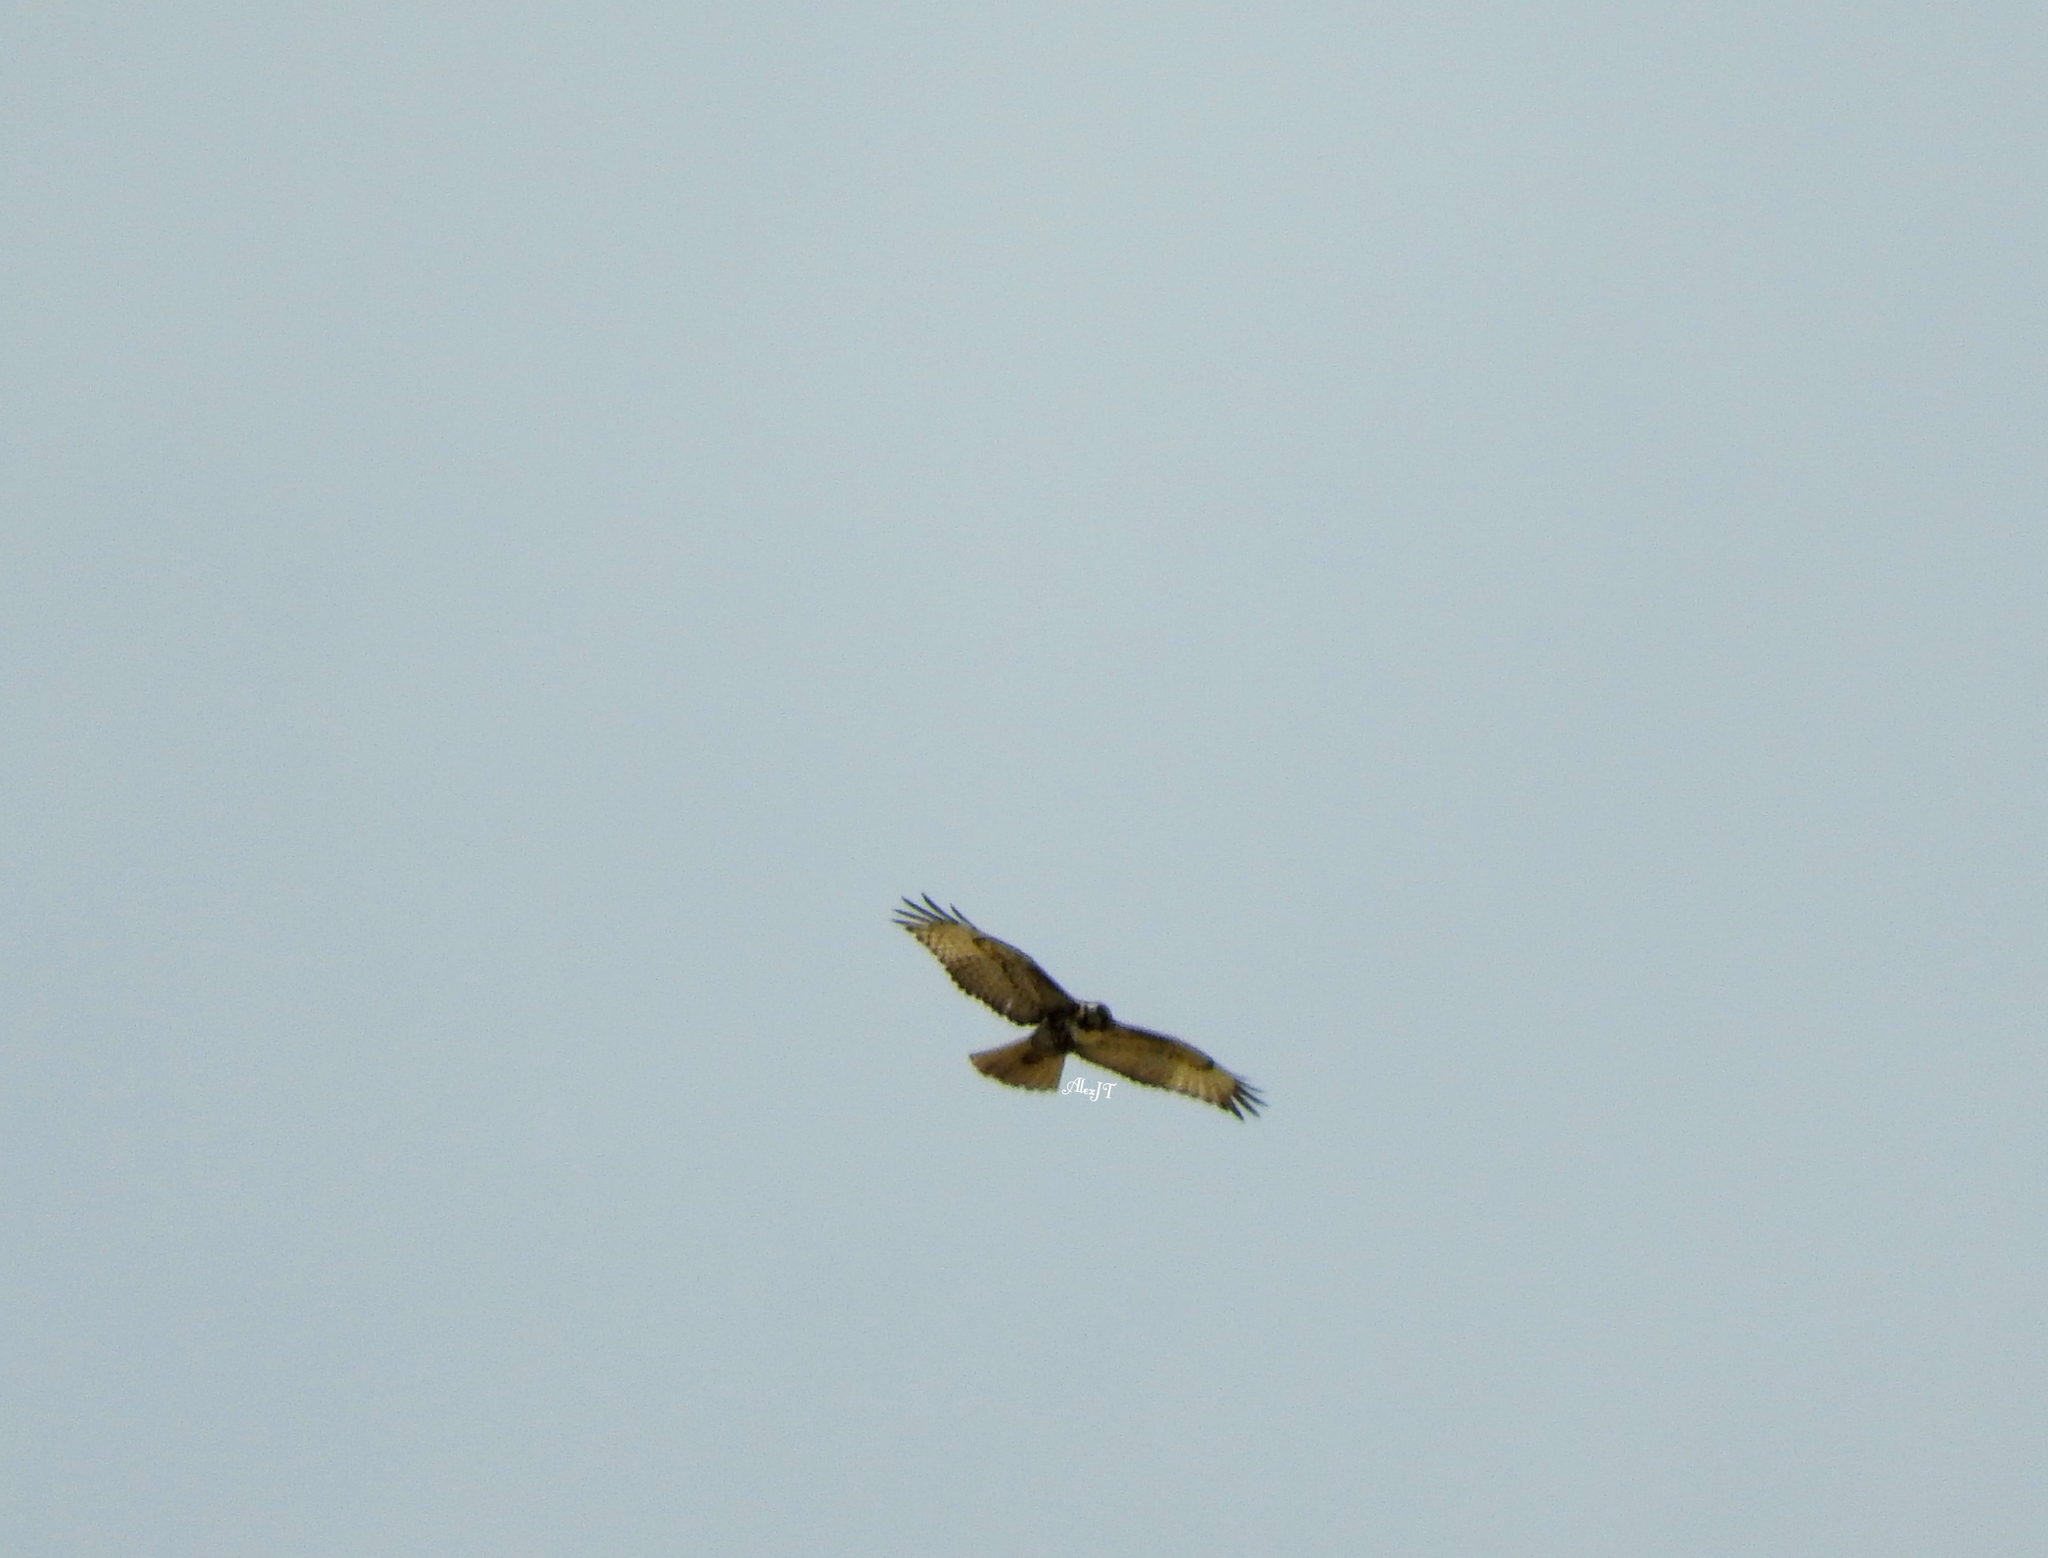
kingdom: Animalia
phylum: Chordata
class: Aves
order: Accipitriformes
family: Accipitridae
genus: Buteo
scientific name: Buteo jamaicensis
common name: Red-tailed hawk
